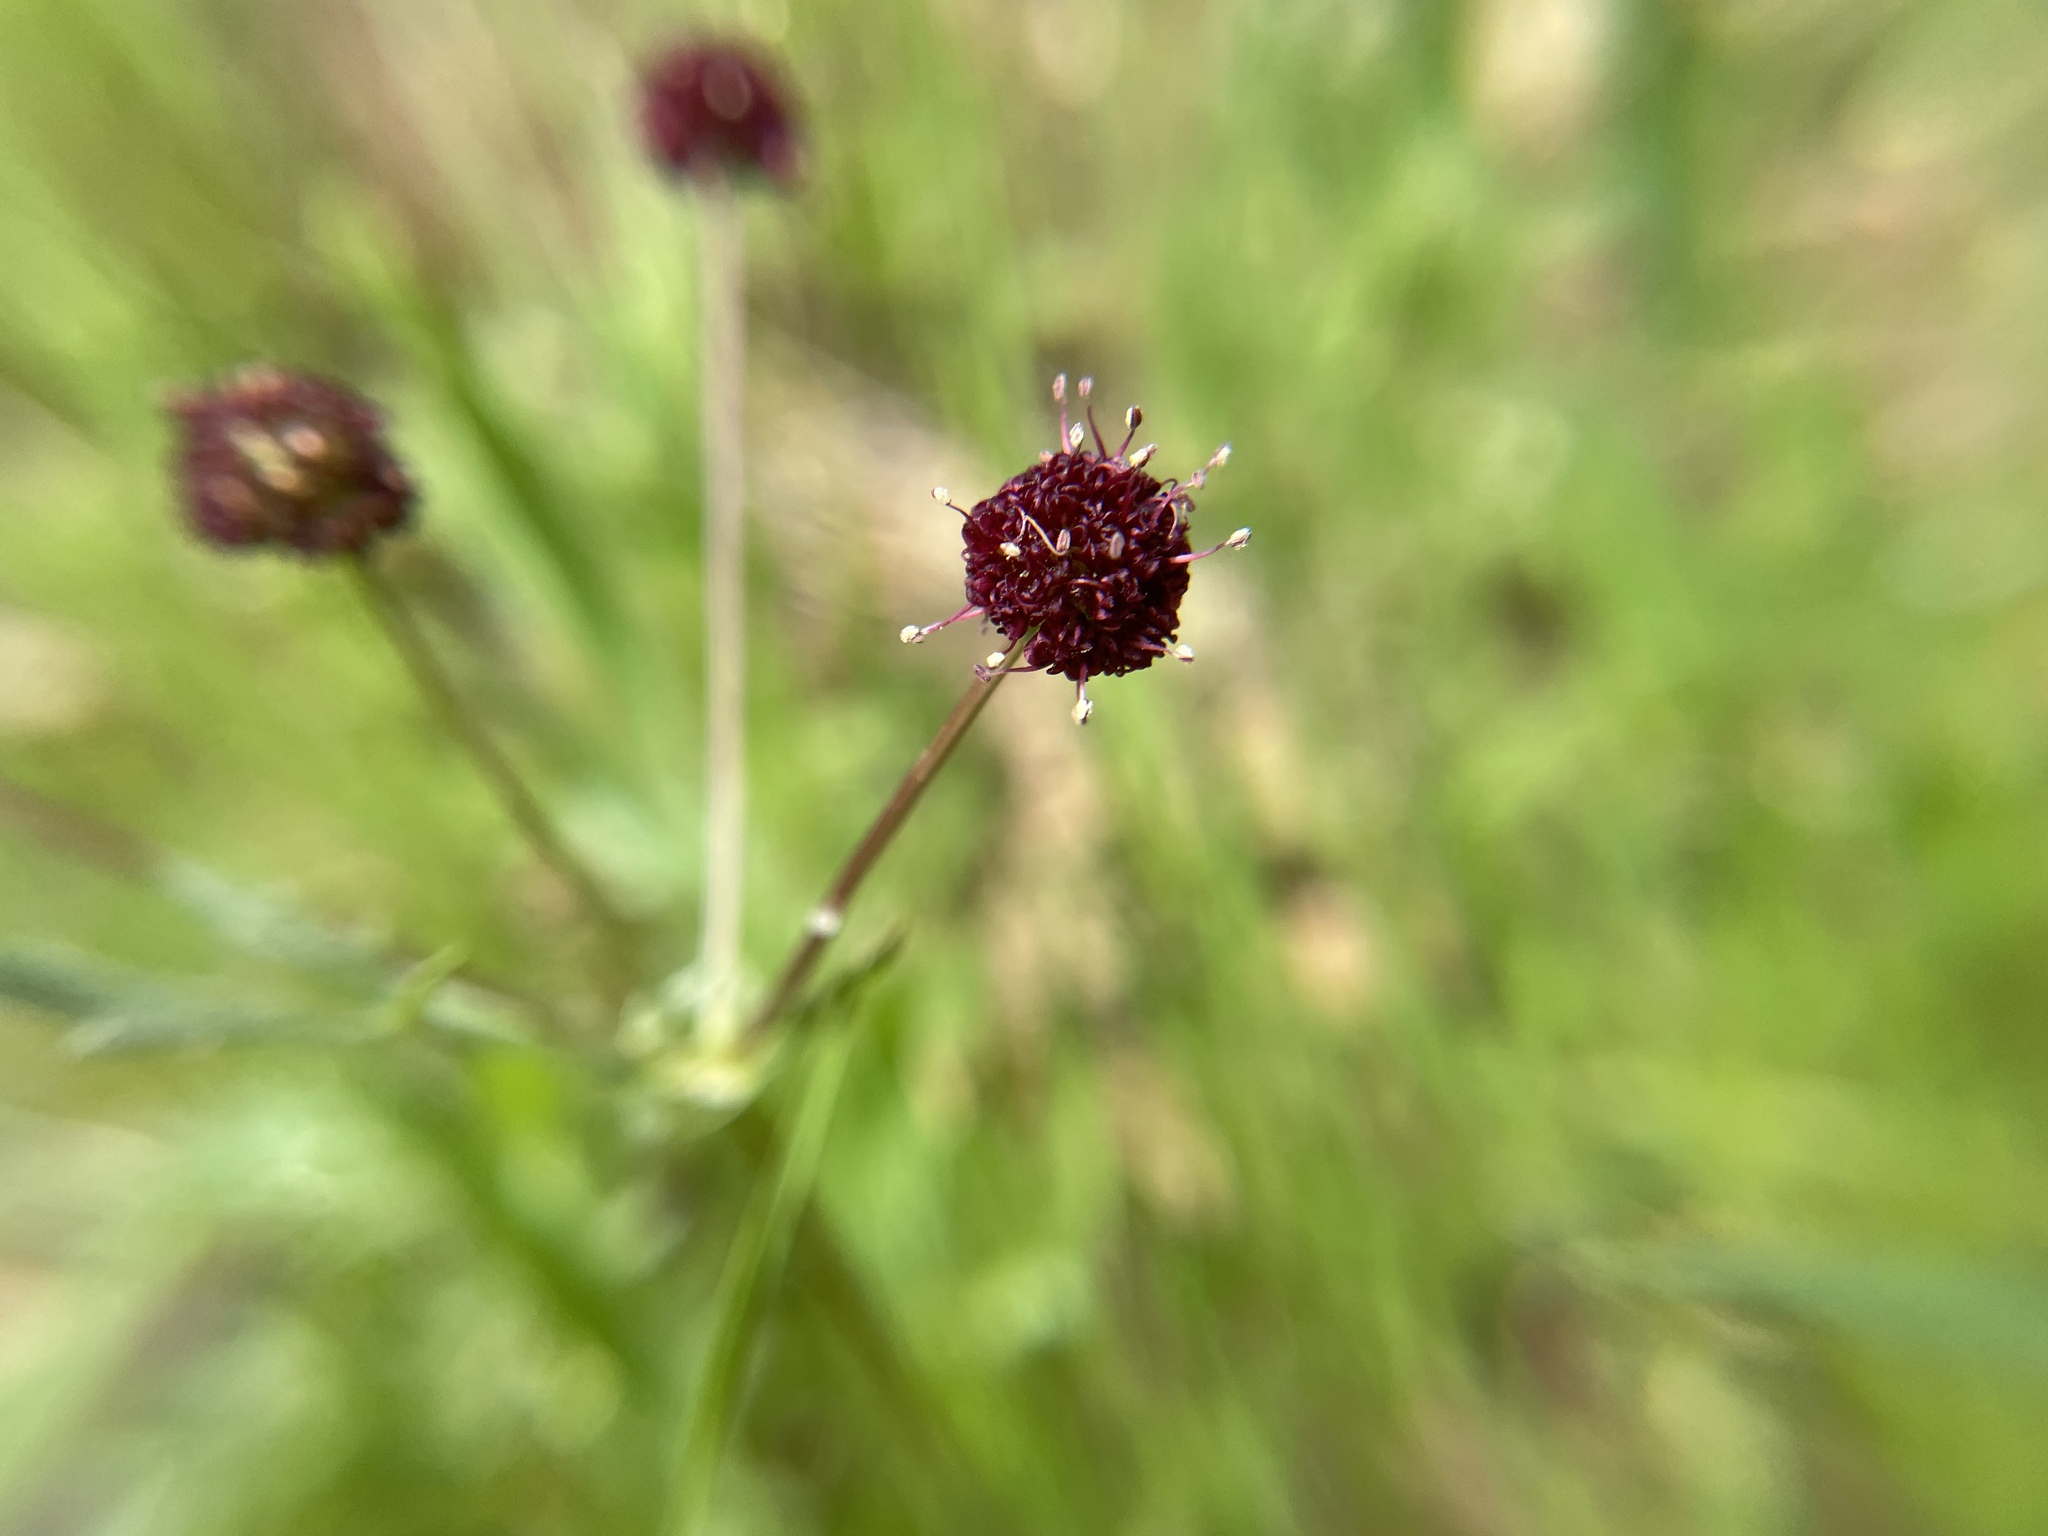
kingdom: Plantae
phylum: Tracheophyta
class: Magnoliopsida
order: Apiales
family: Apiaceae
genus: Sanicula
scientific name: Sanicula bipinnatifida
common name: Shoe-buttons
